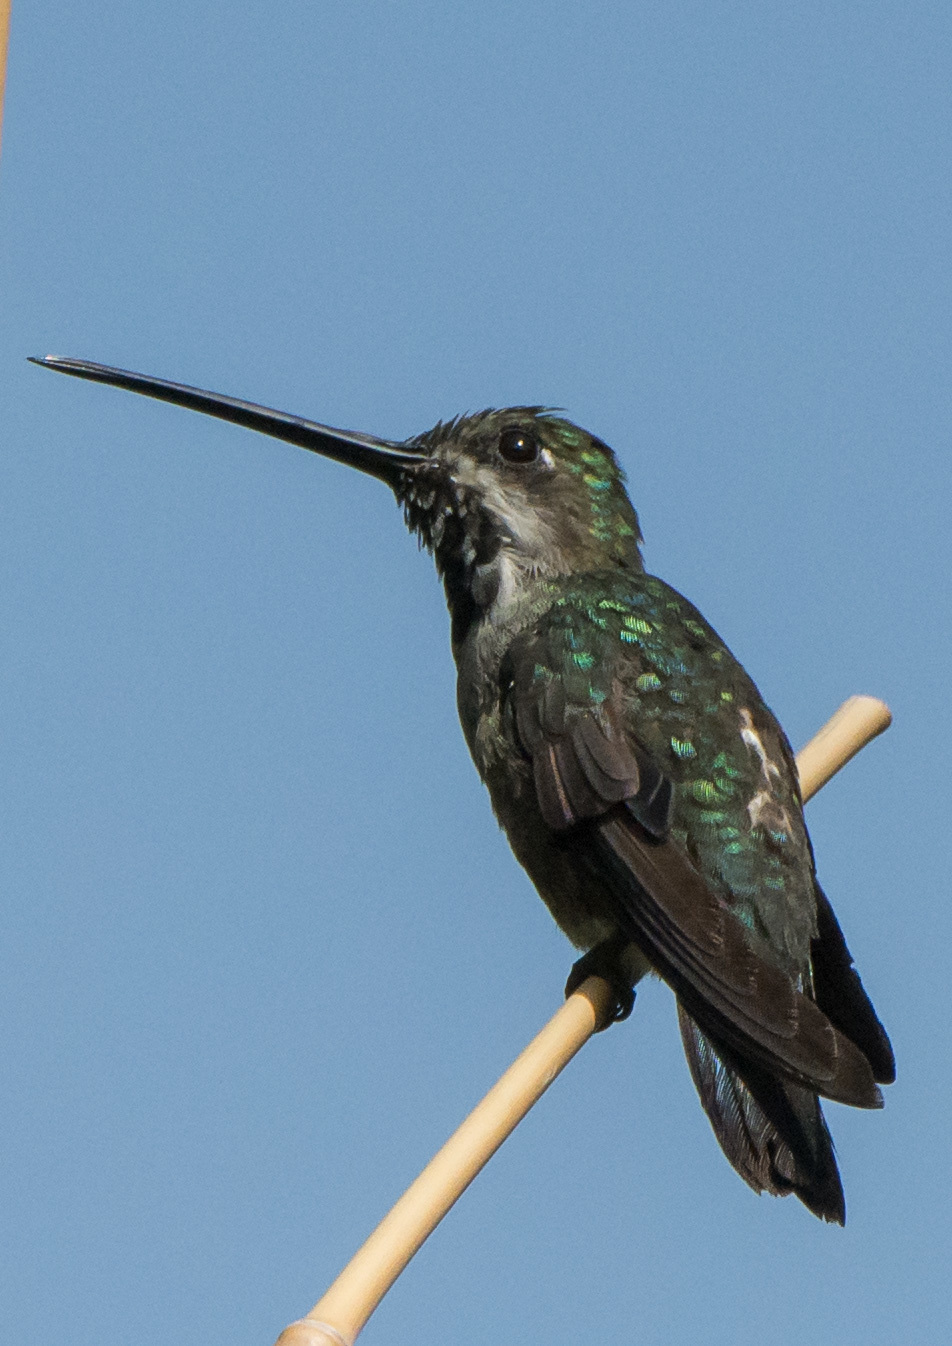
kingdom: Animalia
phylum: Chordata
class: Aves
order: Apodiformes
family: Trochilidae
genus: Heliomaster
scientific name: Heliomaster longirostris
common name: Long-billed starthroat
